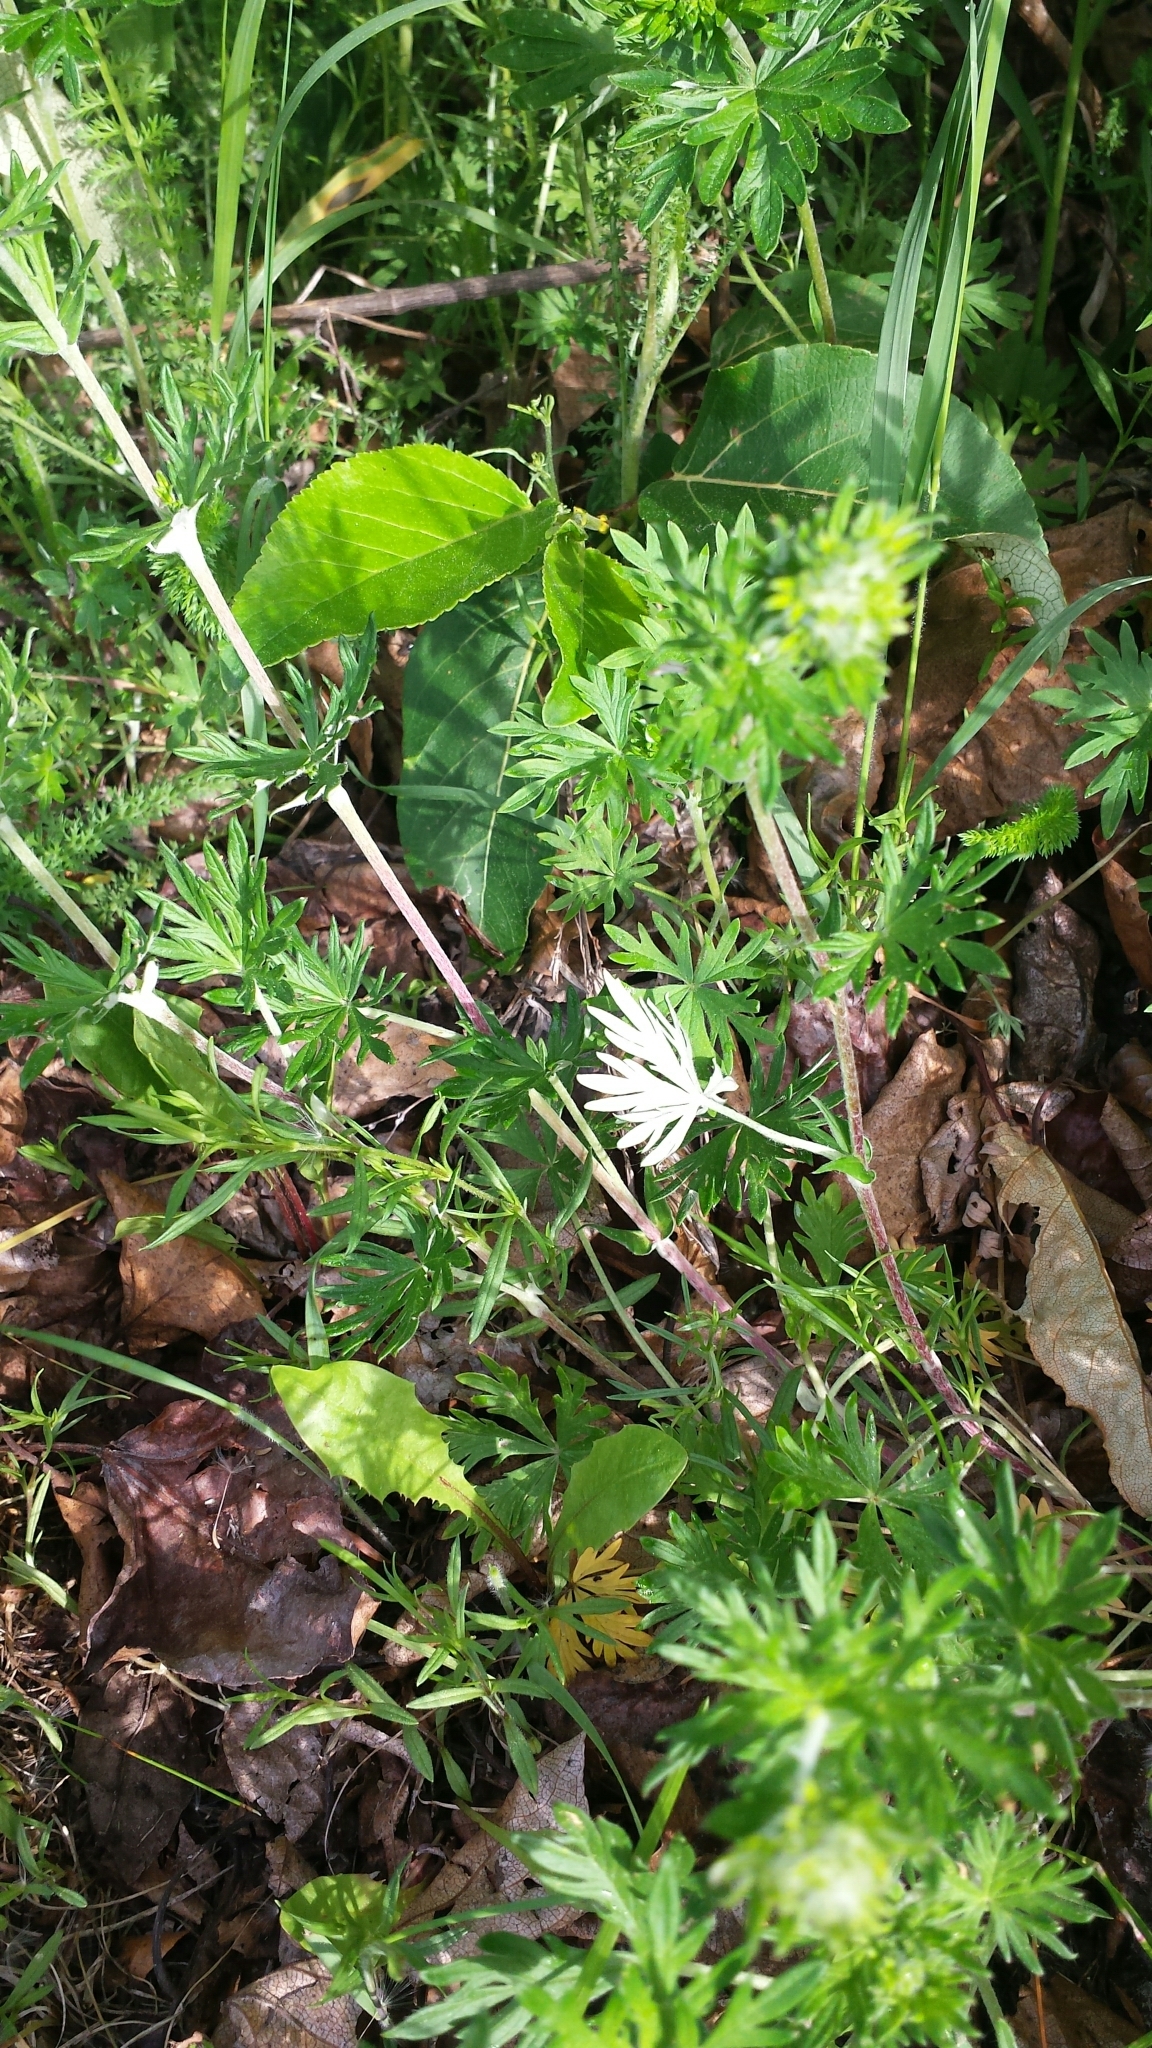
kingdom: Plantae
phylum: Tracheophyta
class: Magnoliopsida
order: Rosales
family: Rosaceae
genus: Potentilla
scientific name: Potentilla argentea
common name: Hoary cinquefoil
